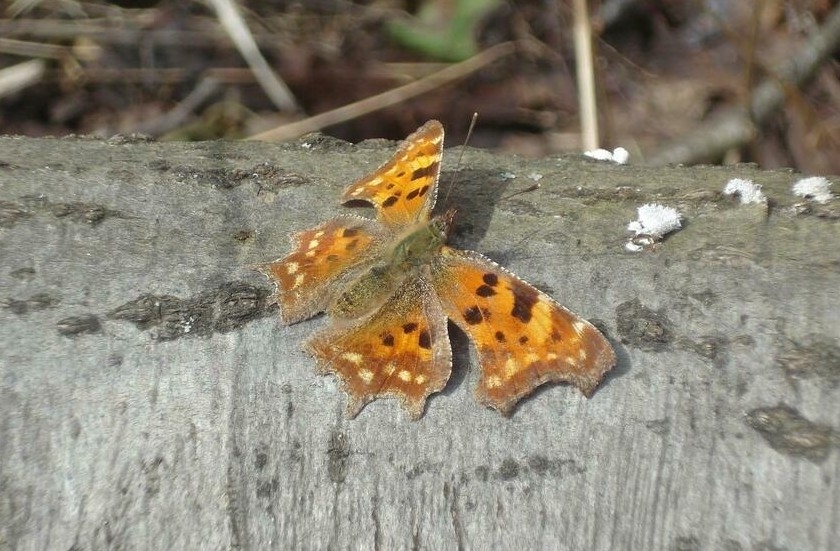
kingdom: Animalia
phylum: Arthropoda
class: Insecta
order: Lepidoptera
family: Nymphalidae
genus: Polygonia
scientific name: Polygonia c-album
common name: Comma
